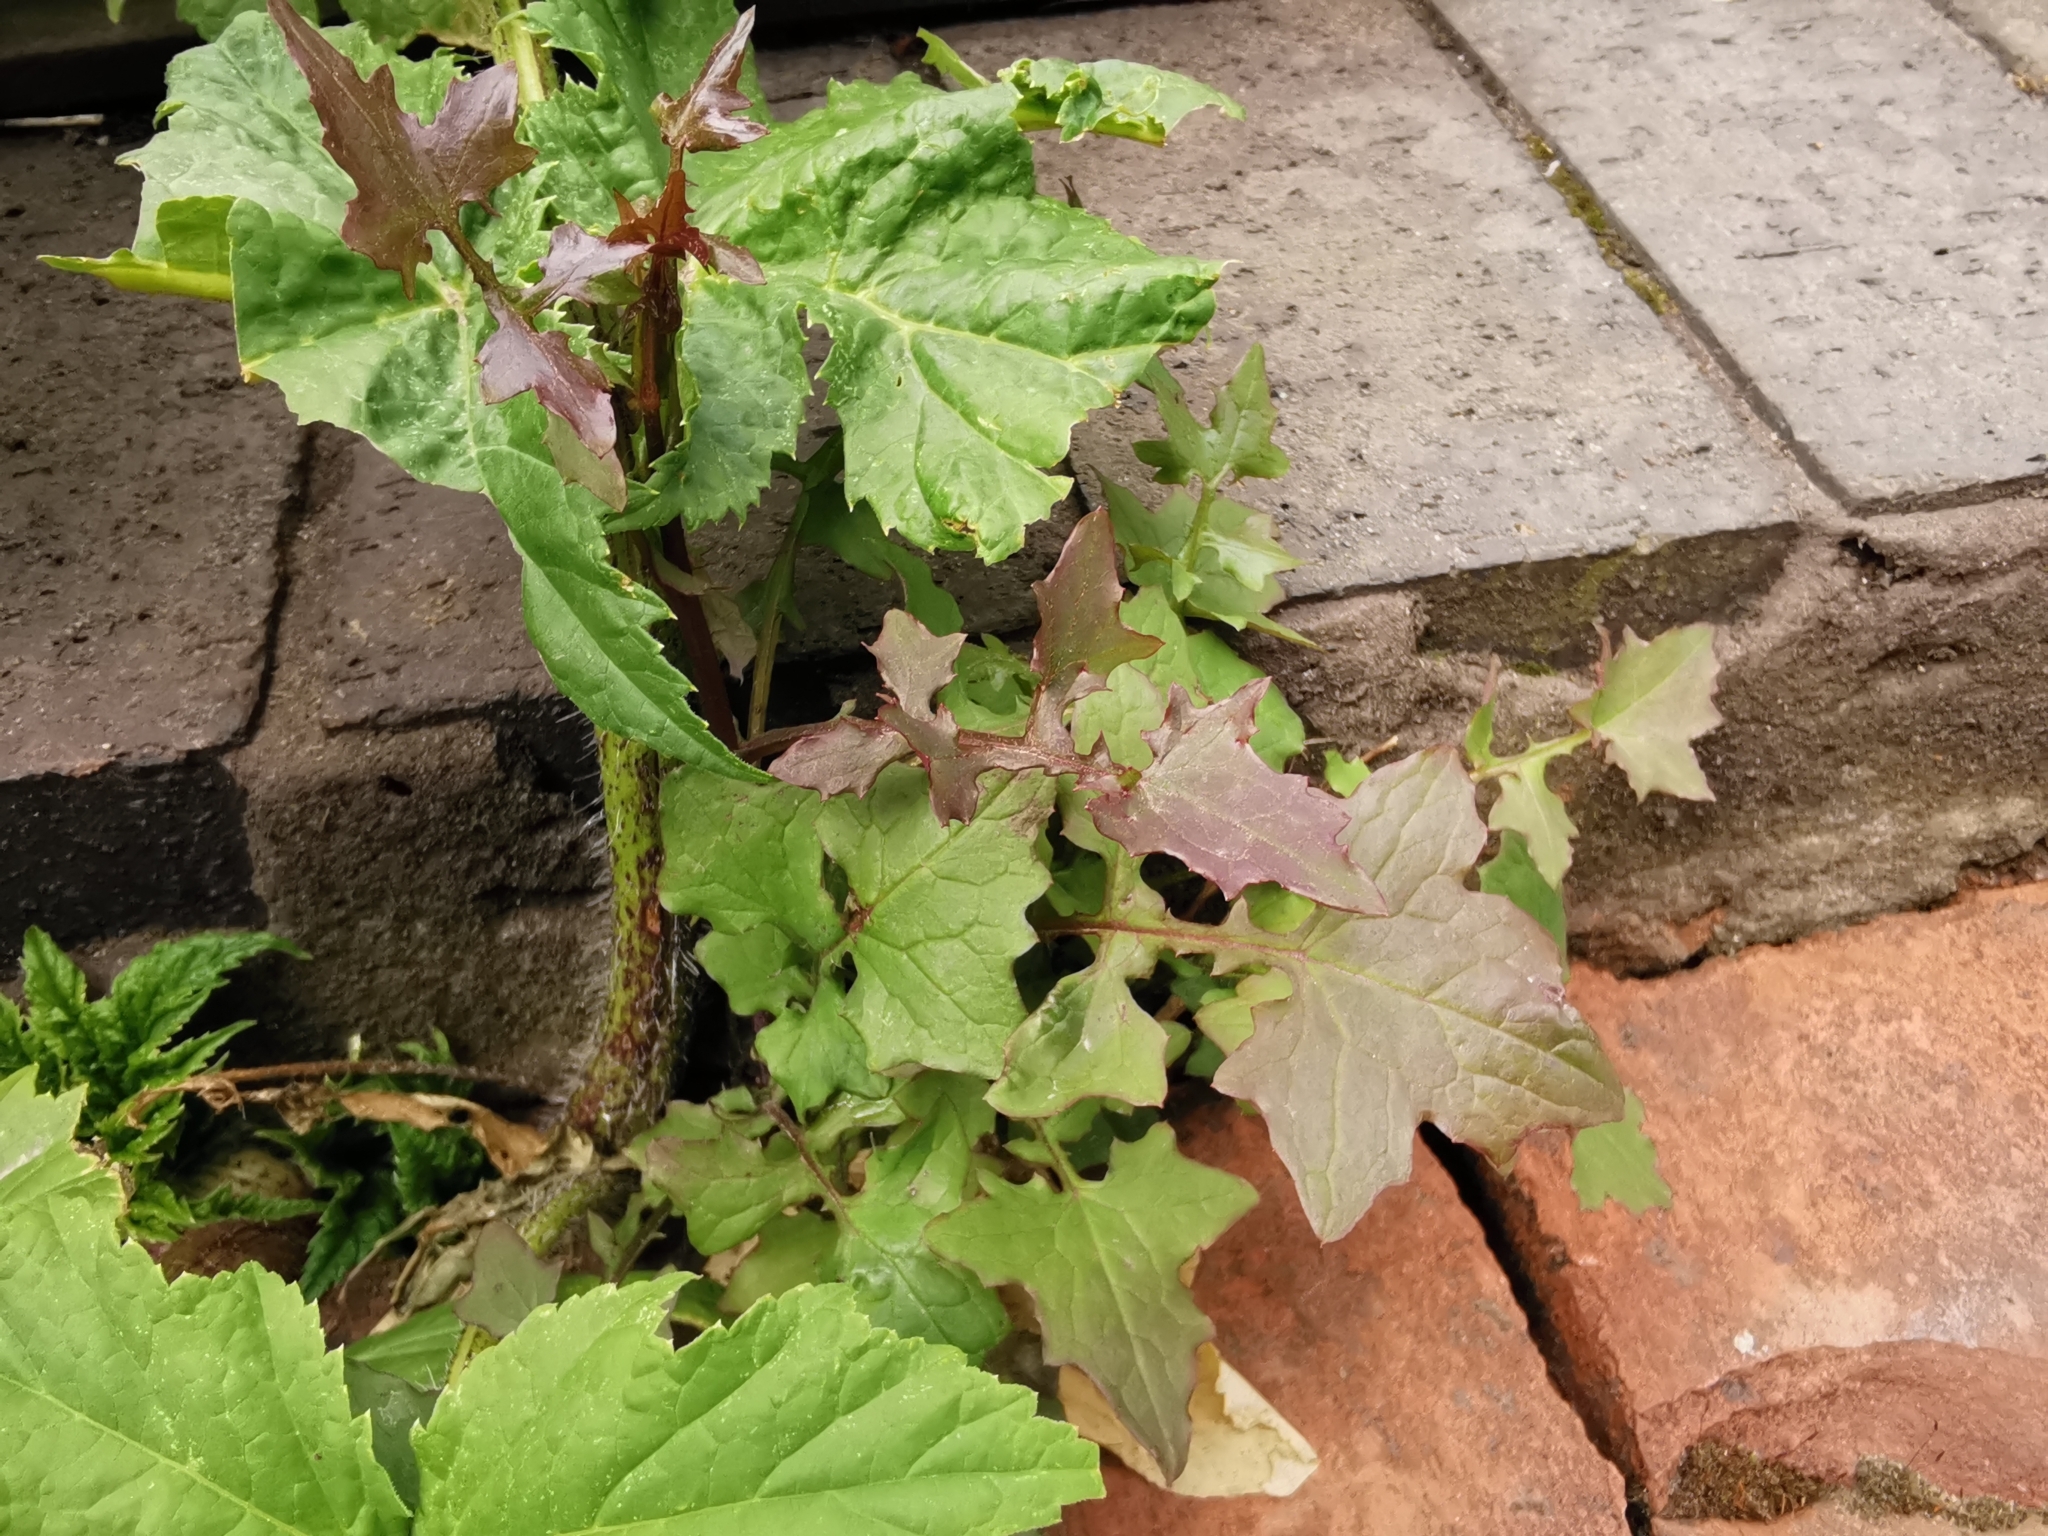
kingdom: Plantae
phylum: Tracheophyta
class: Magnoliopsida
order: Asterales
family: Asteraceae
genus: Mycelis
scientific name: Mycelis muralis
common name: Wall lettuce
